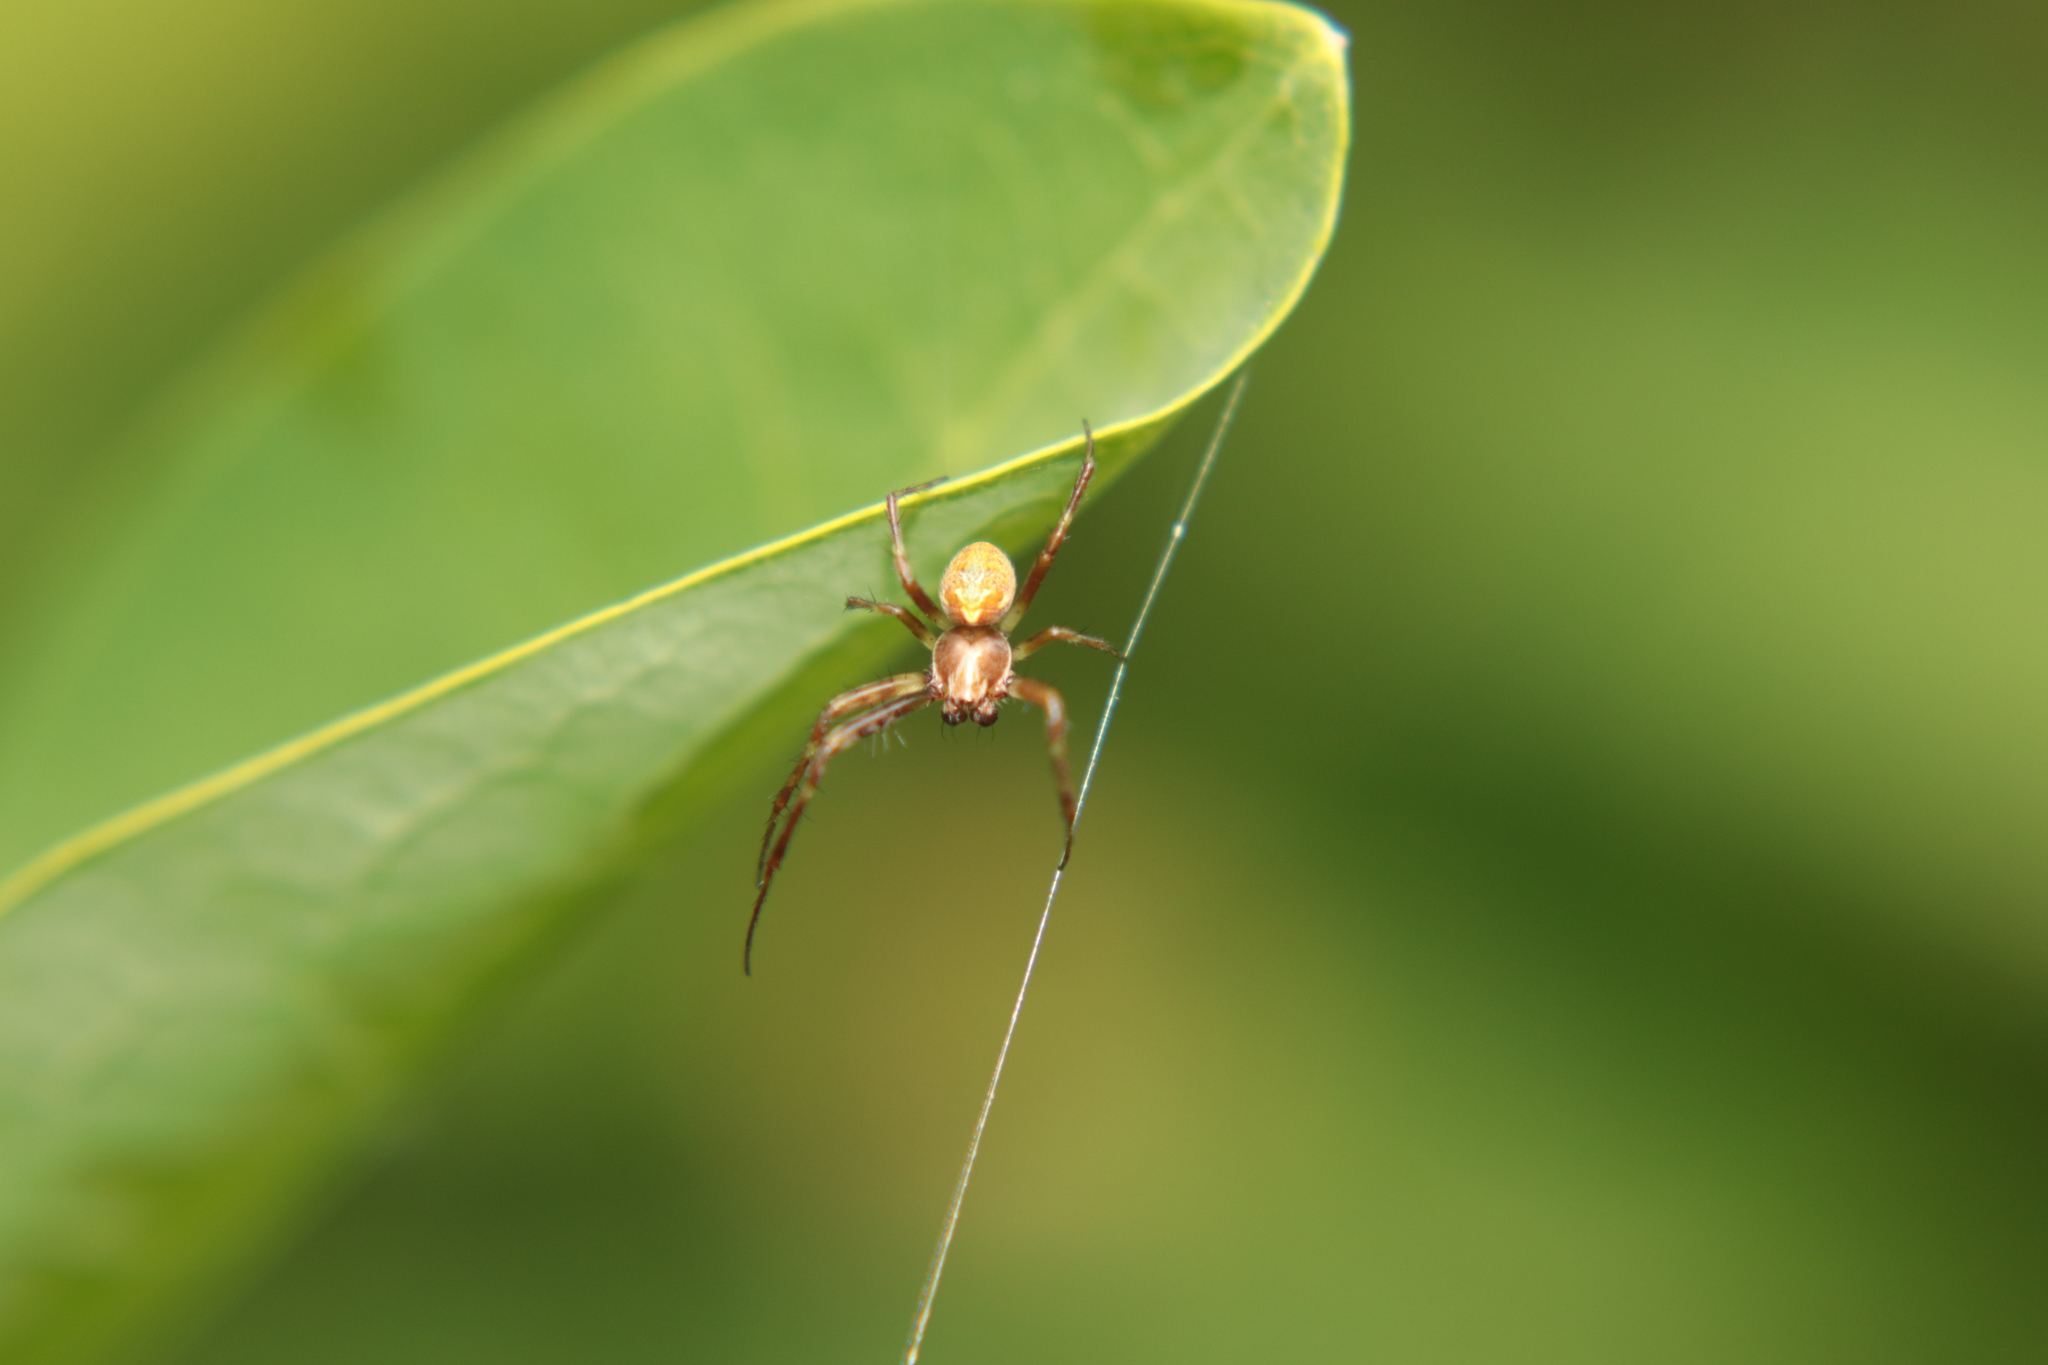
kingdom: Animalia
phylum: Arthropoda
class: Arachnida
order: Araneae
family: Araneidae
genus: Novaranea
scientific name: Novaranea queribunda
